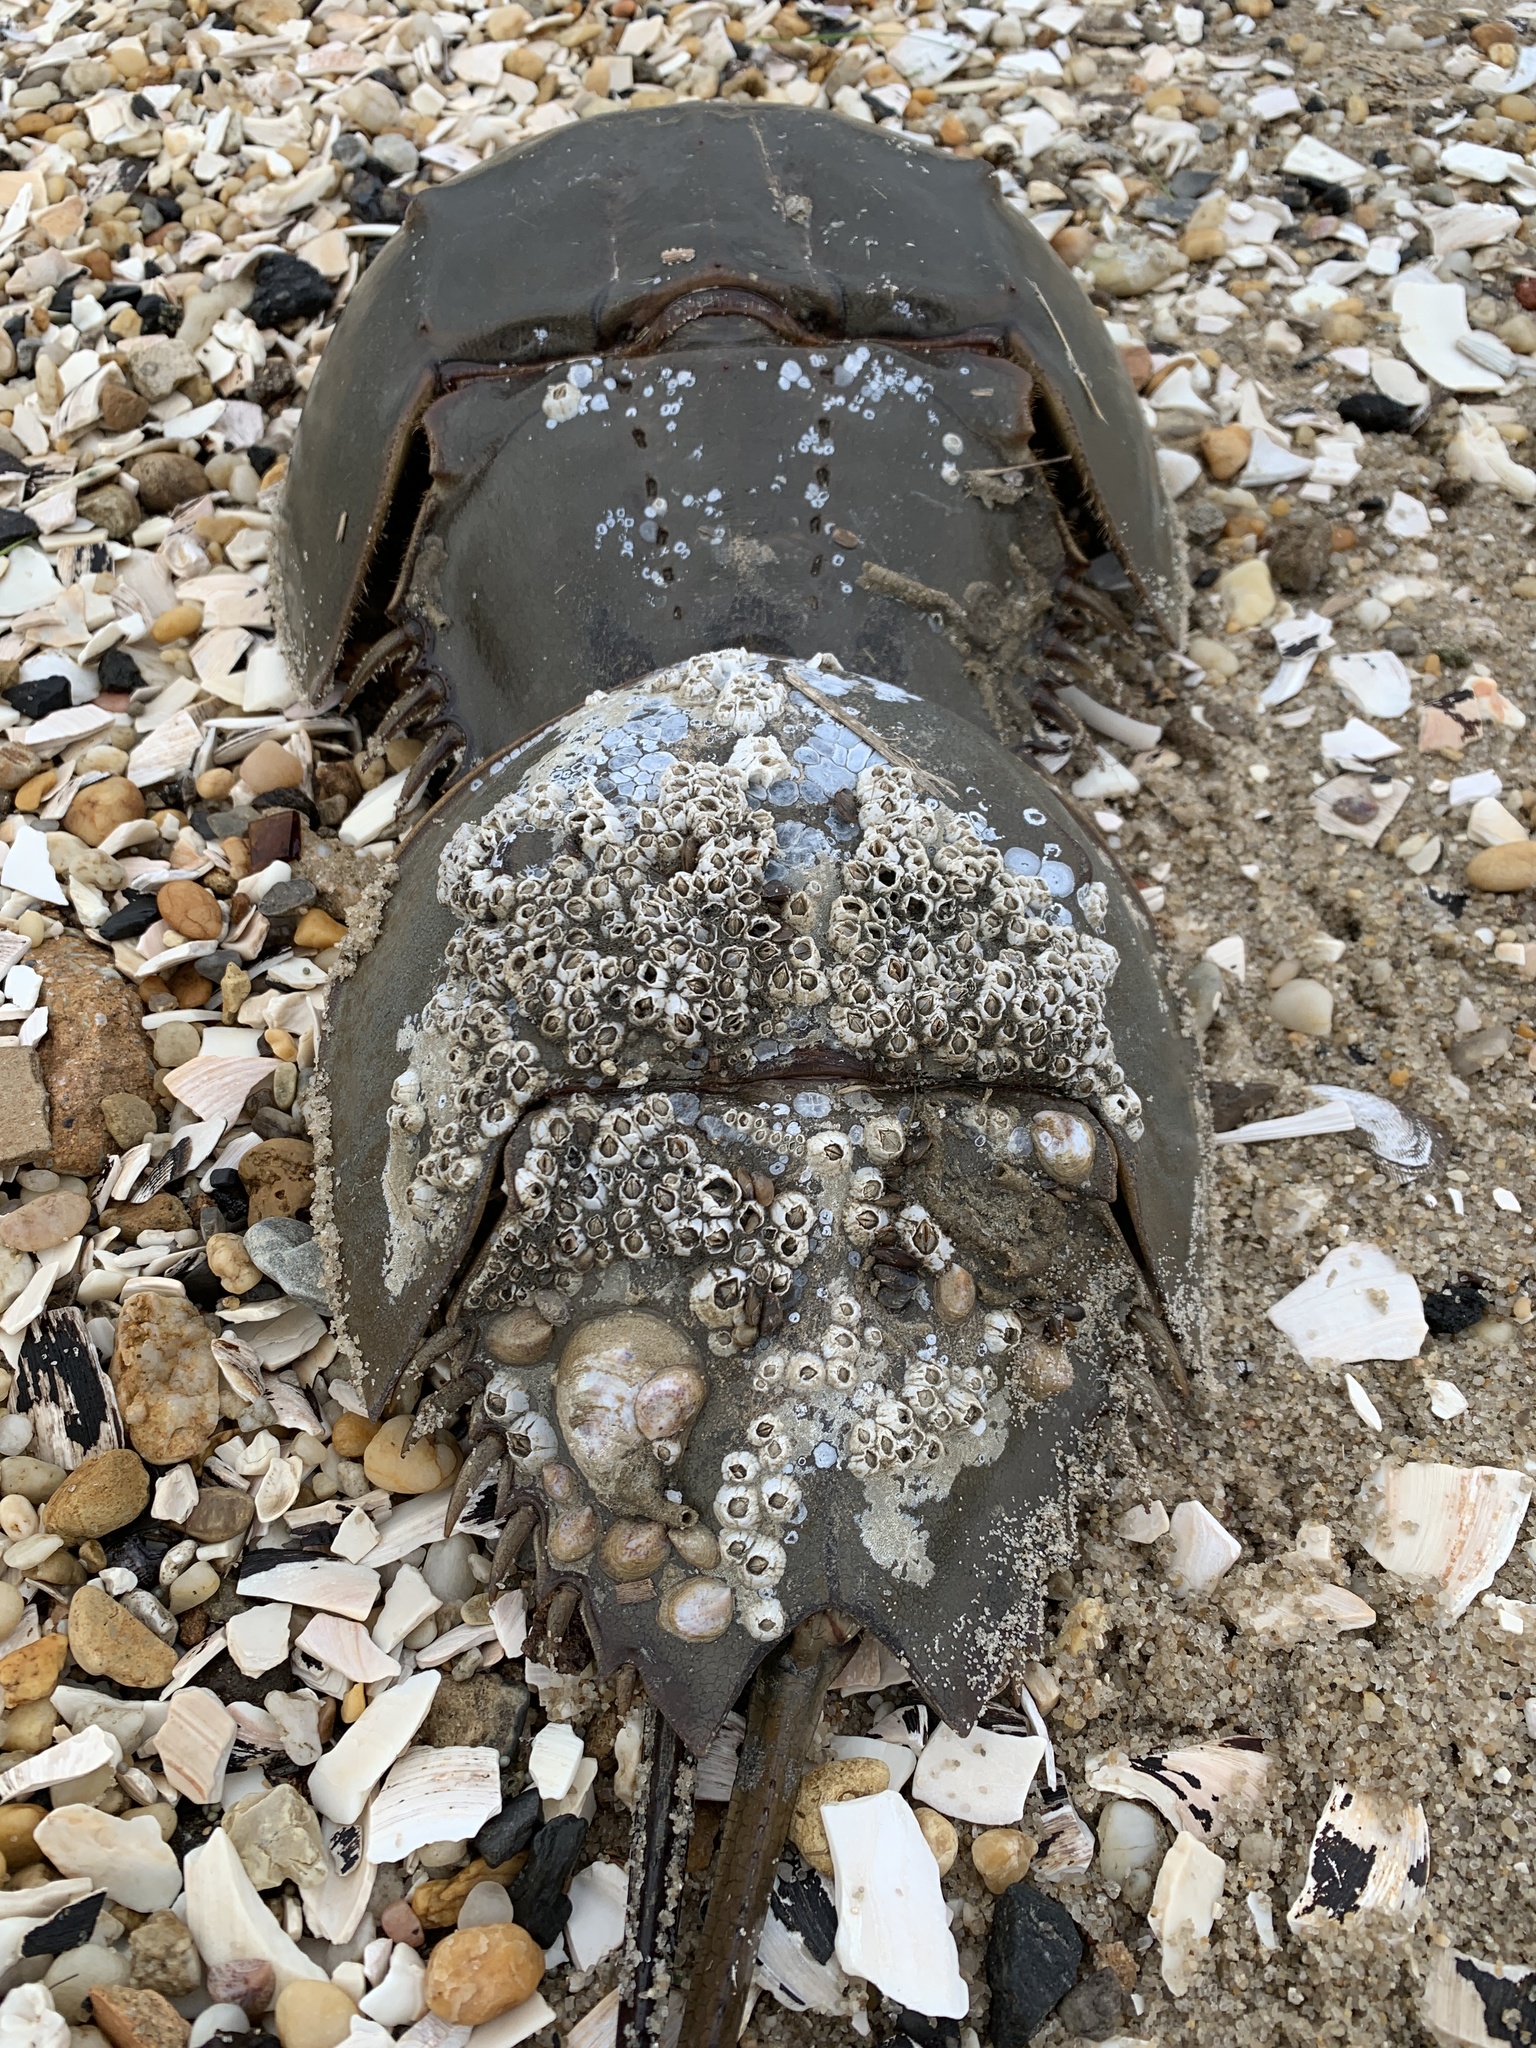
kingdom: Animalia
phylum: Arthropoda
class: Merostomata
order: Xiphosurida
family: Limulidae
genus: Limulus
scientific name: Limulus polyphemus
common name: Horseshoe crab
